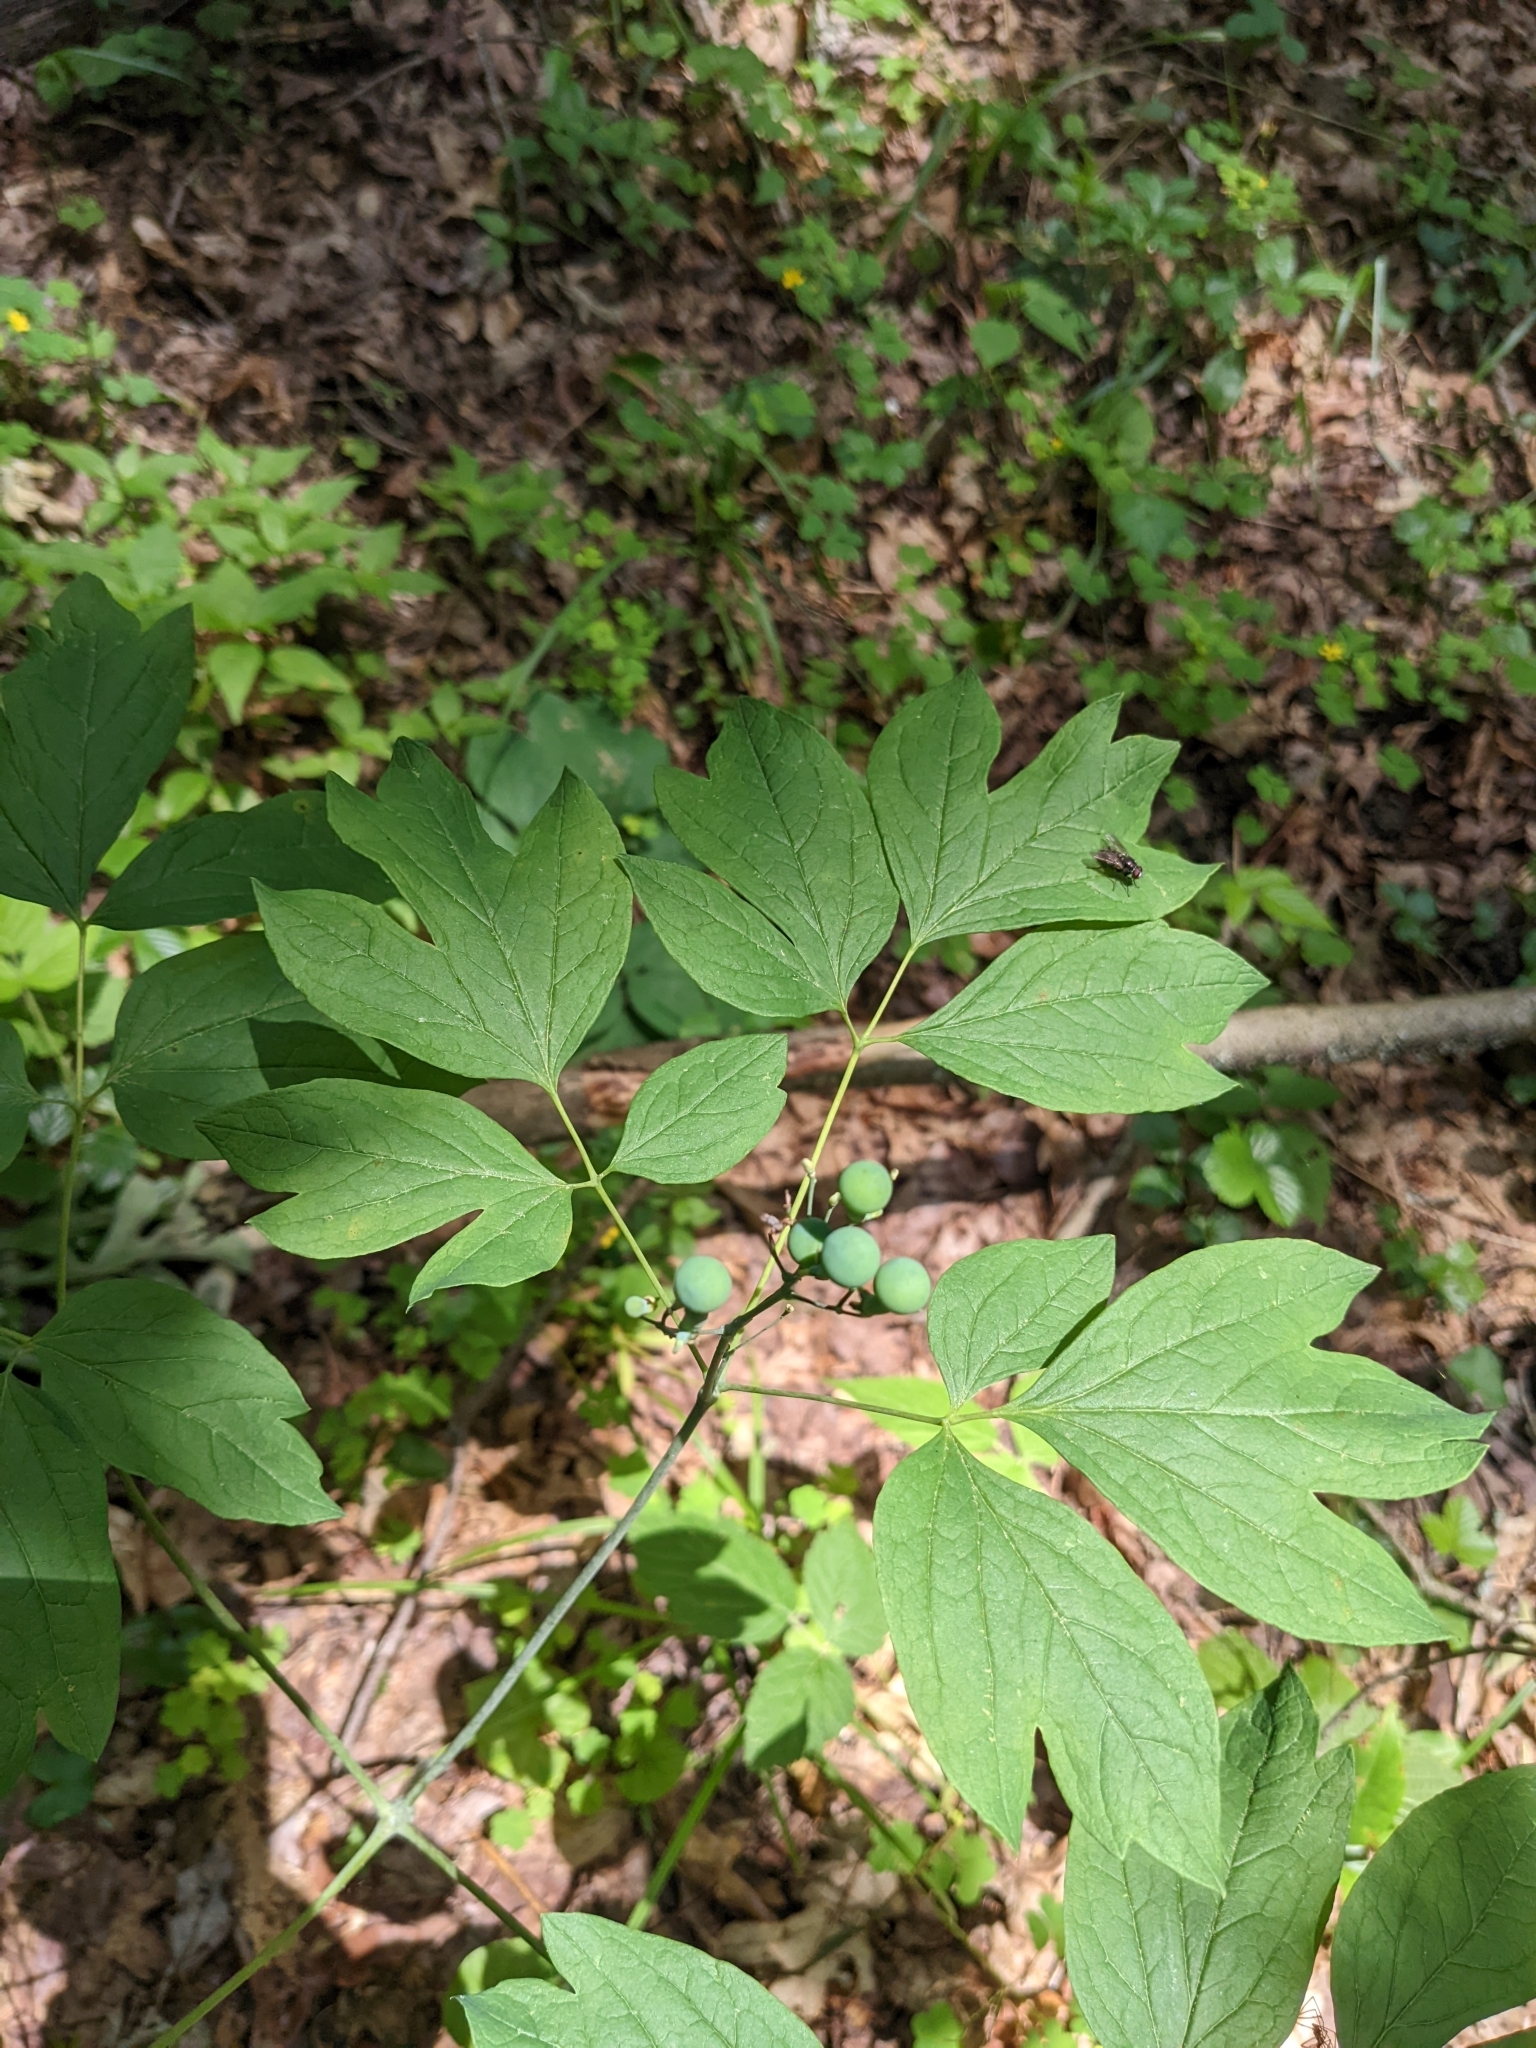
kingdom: Plantae
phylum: Tracheophyta
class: Magnoliopsida
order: Ranunculales
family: Berberidaceae
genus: Caulophyllum
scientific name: Caulophyllum thalictroides
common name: Blue cohosh
